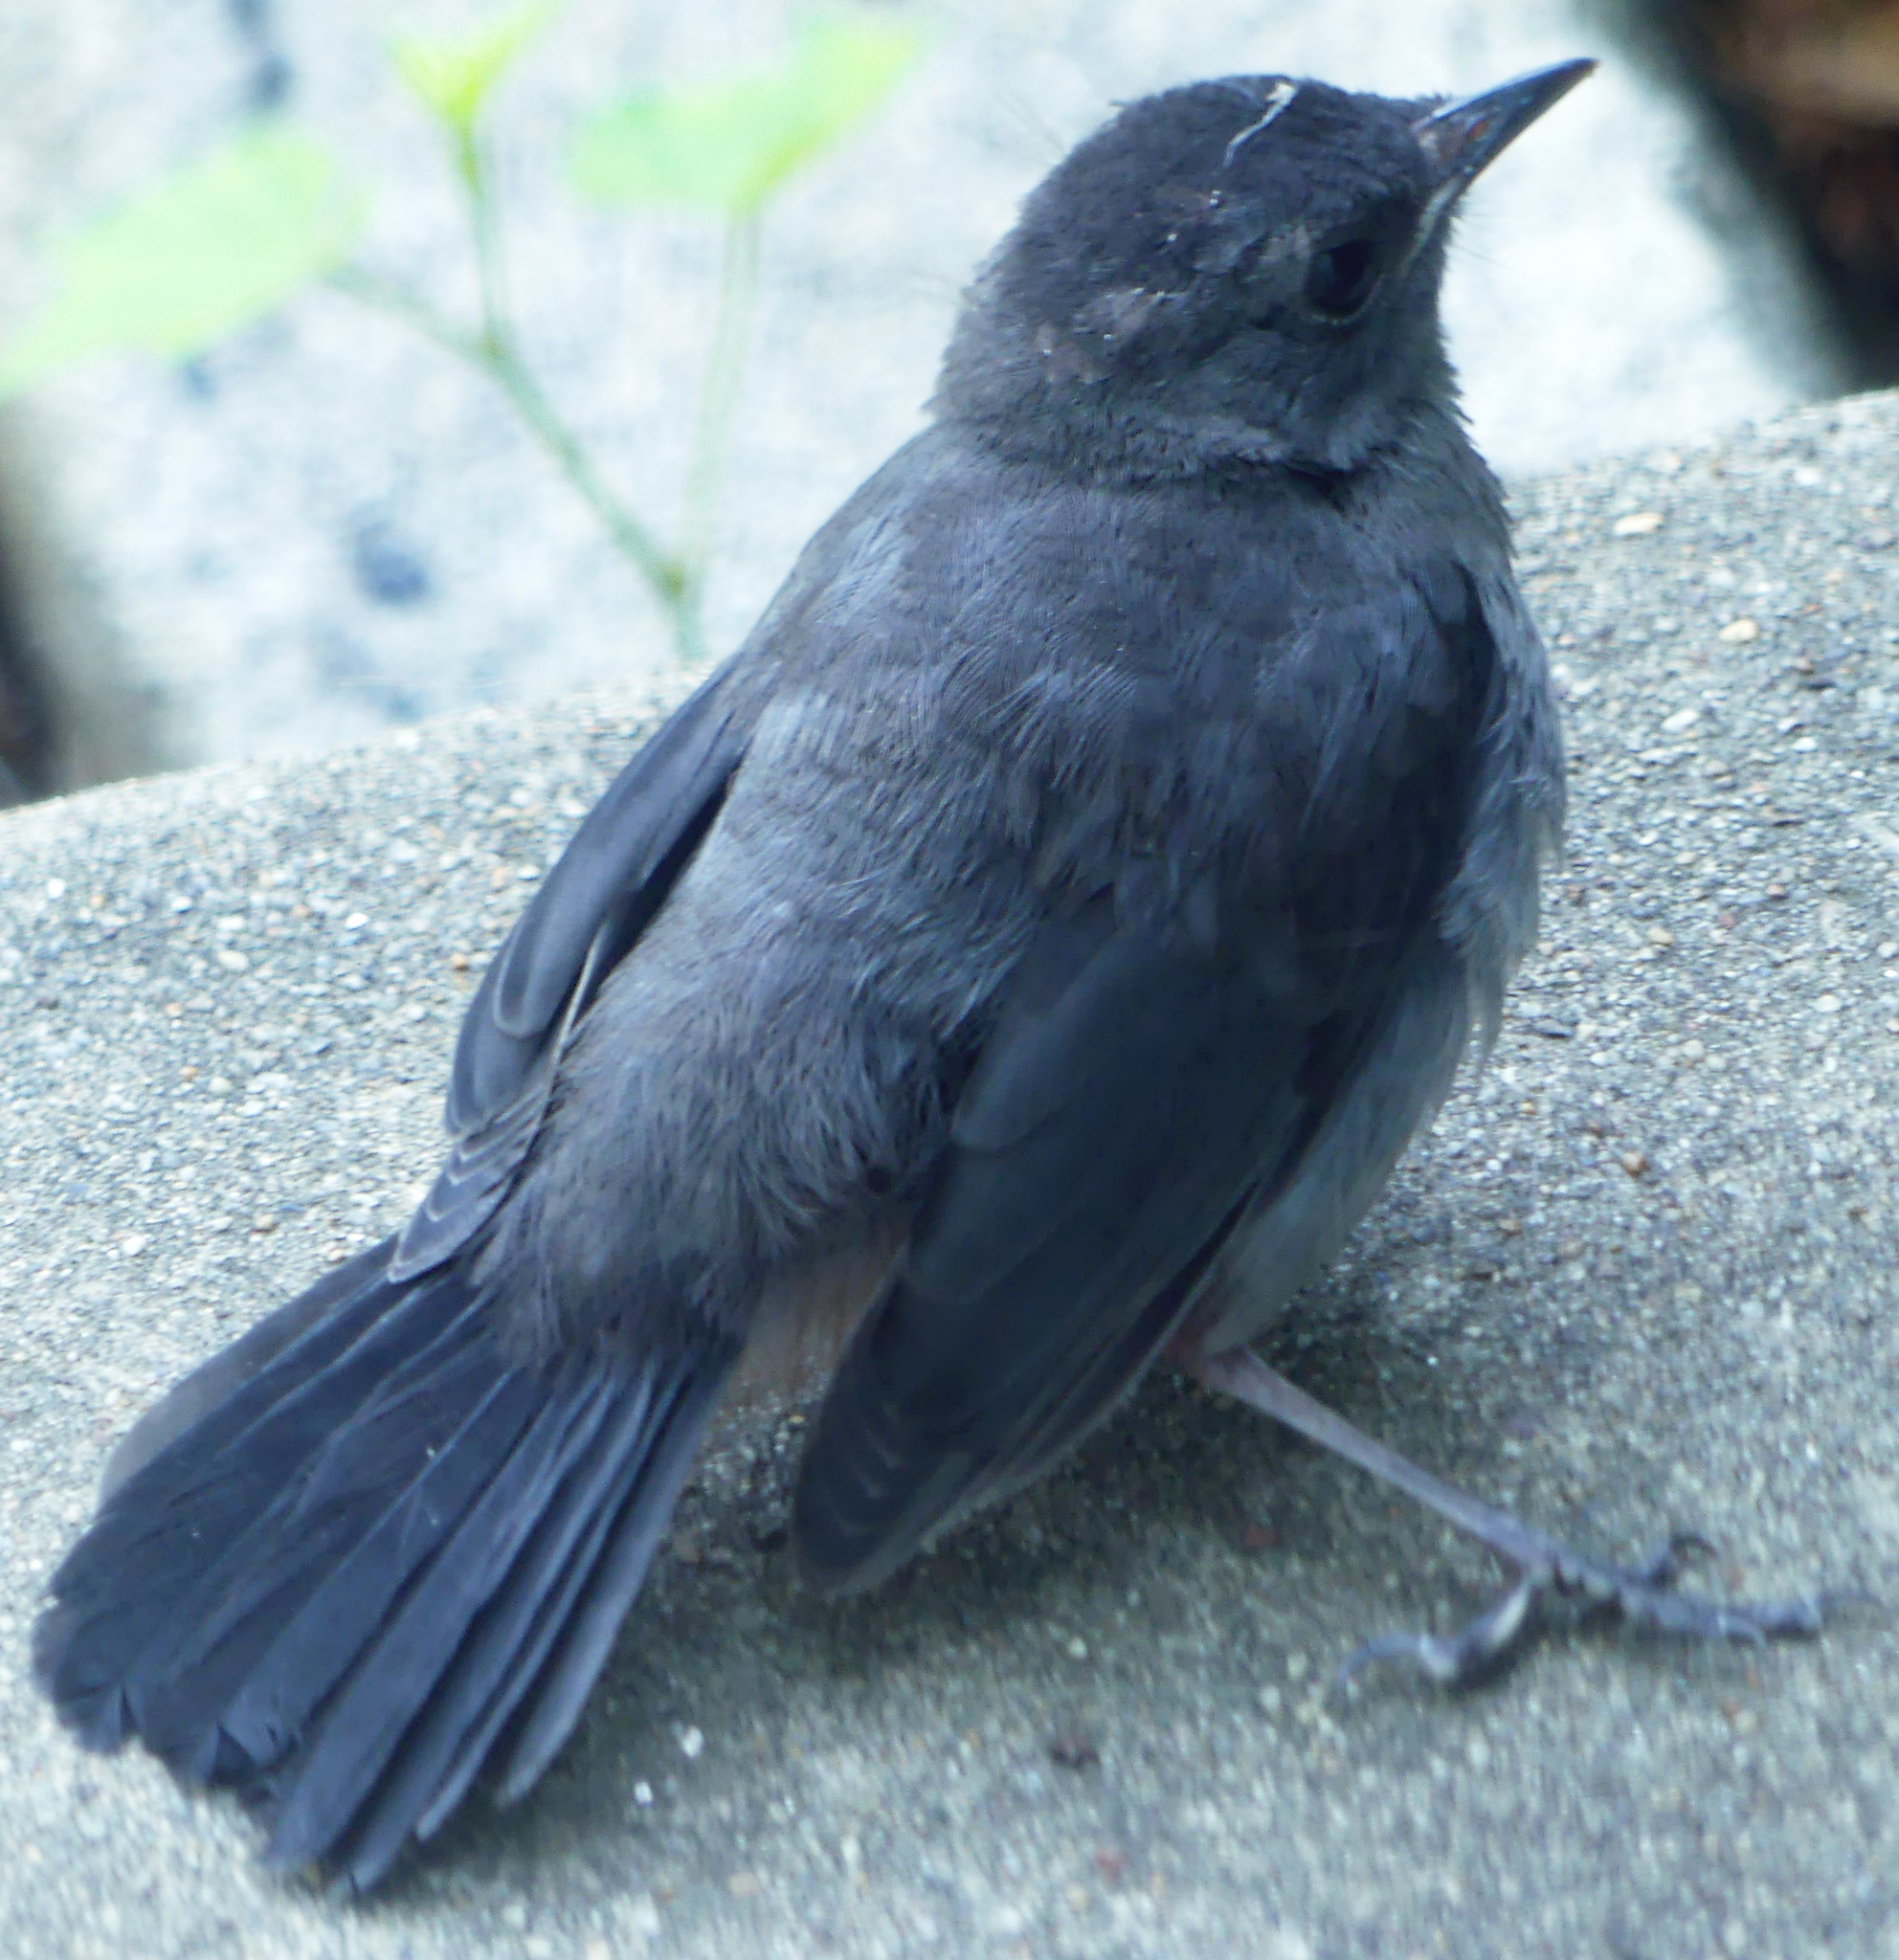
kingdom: Animalia
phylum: Chordata
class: Aves
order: Passeriformes
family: Mimidae
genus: Dumetella
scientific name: Dumetella carolinensis
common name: Gray catbird
